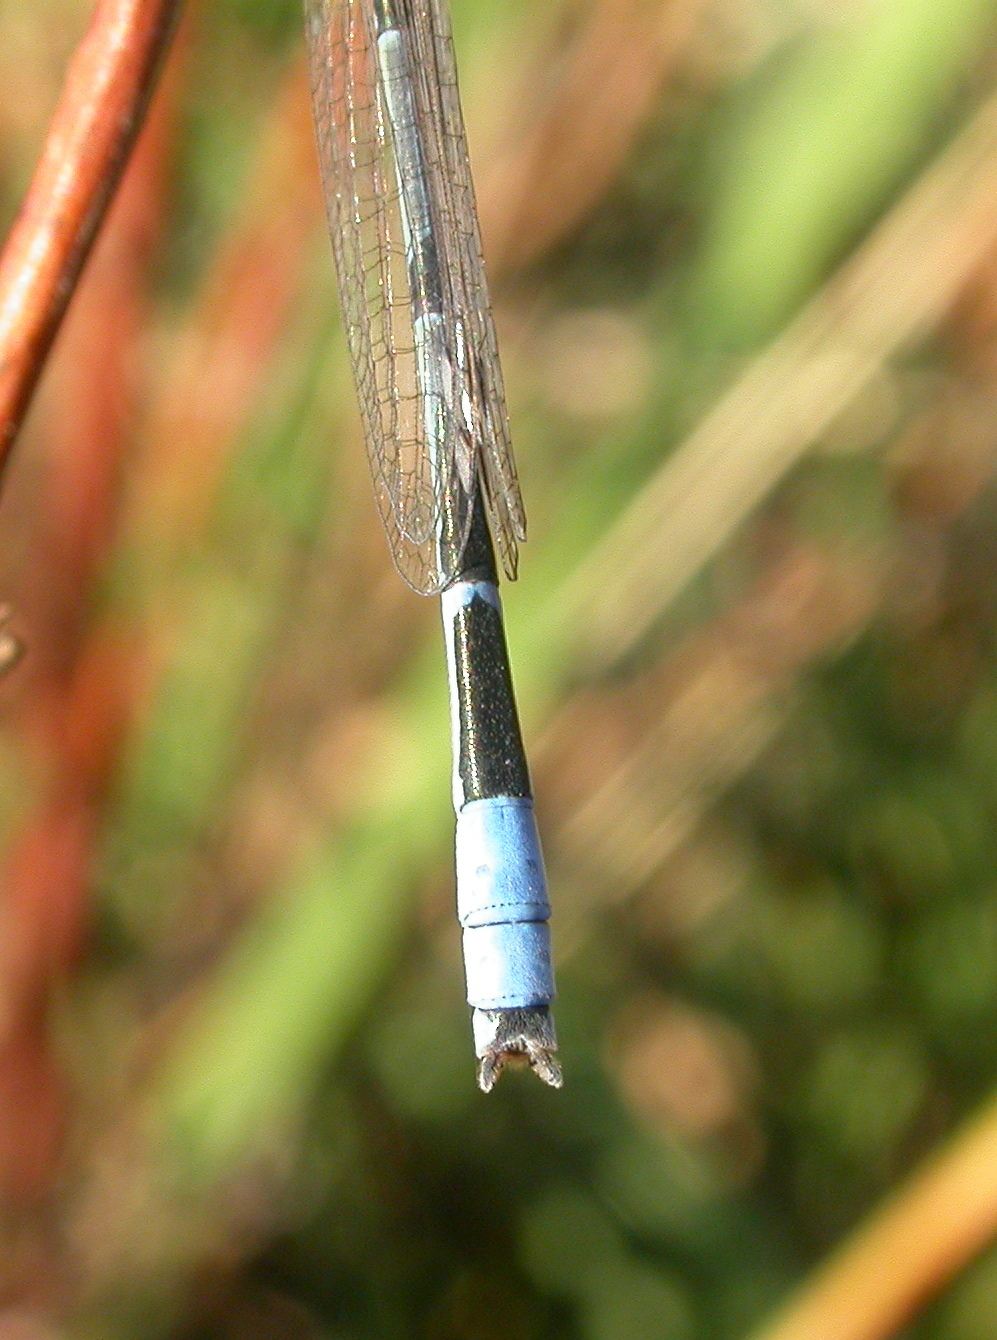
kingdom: Animalia
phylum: Arthropoda
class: Insecta
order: Odonata
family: Coenagrionidae
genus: Enallagma
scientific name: Enallagma civile
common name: Damselfly
